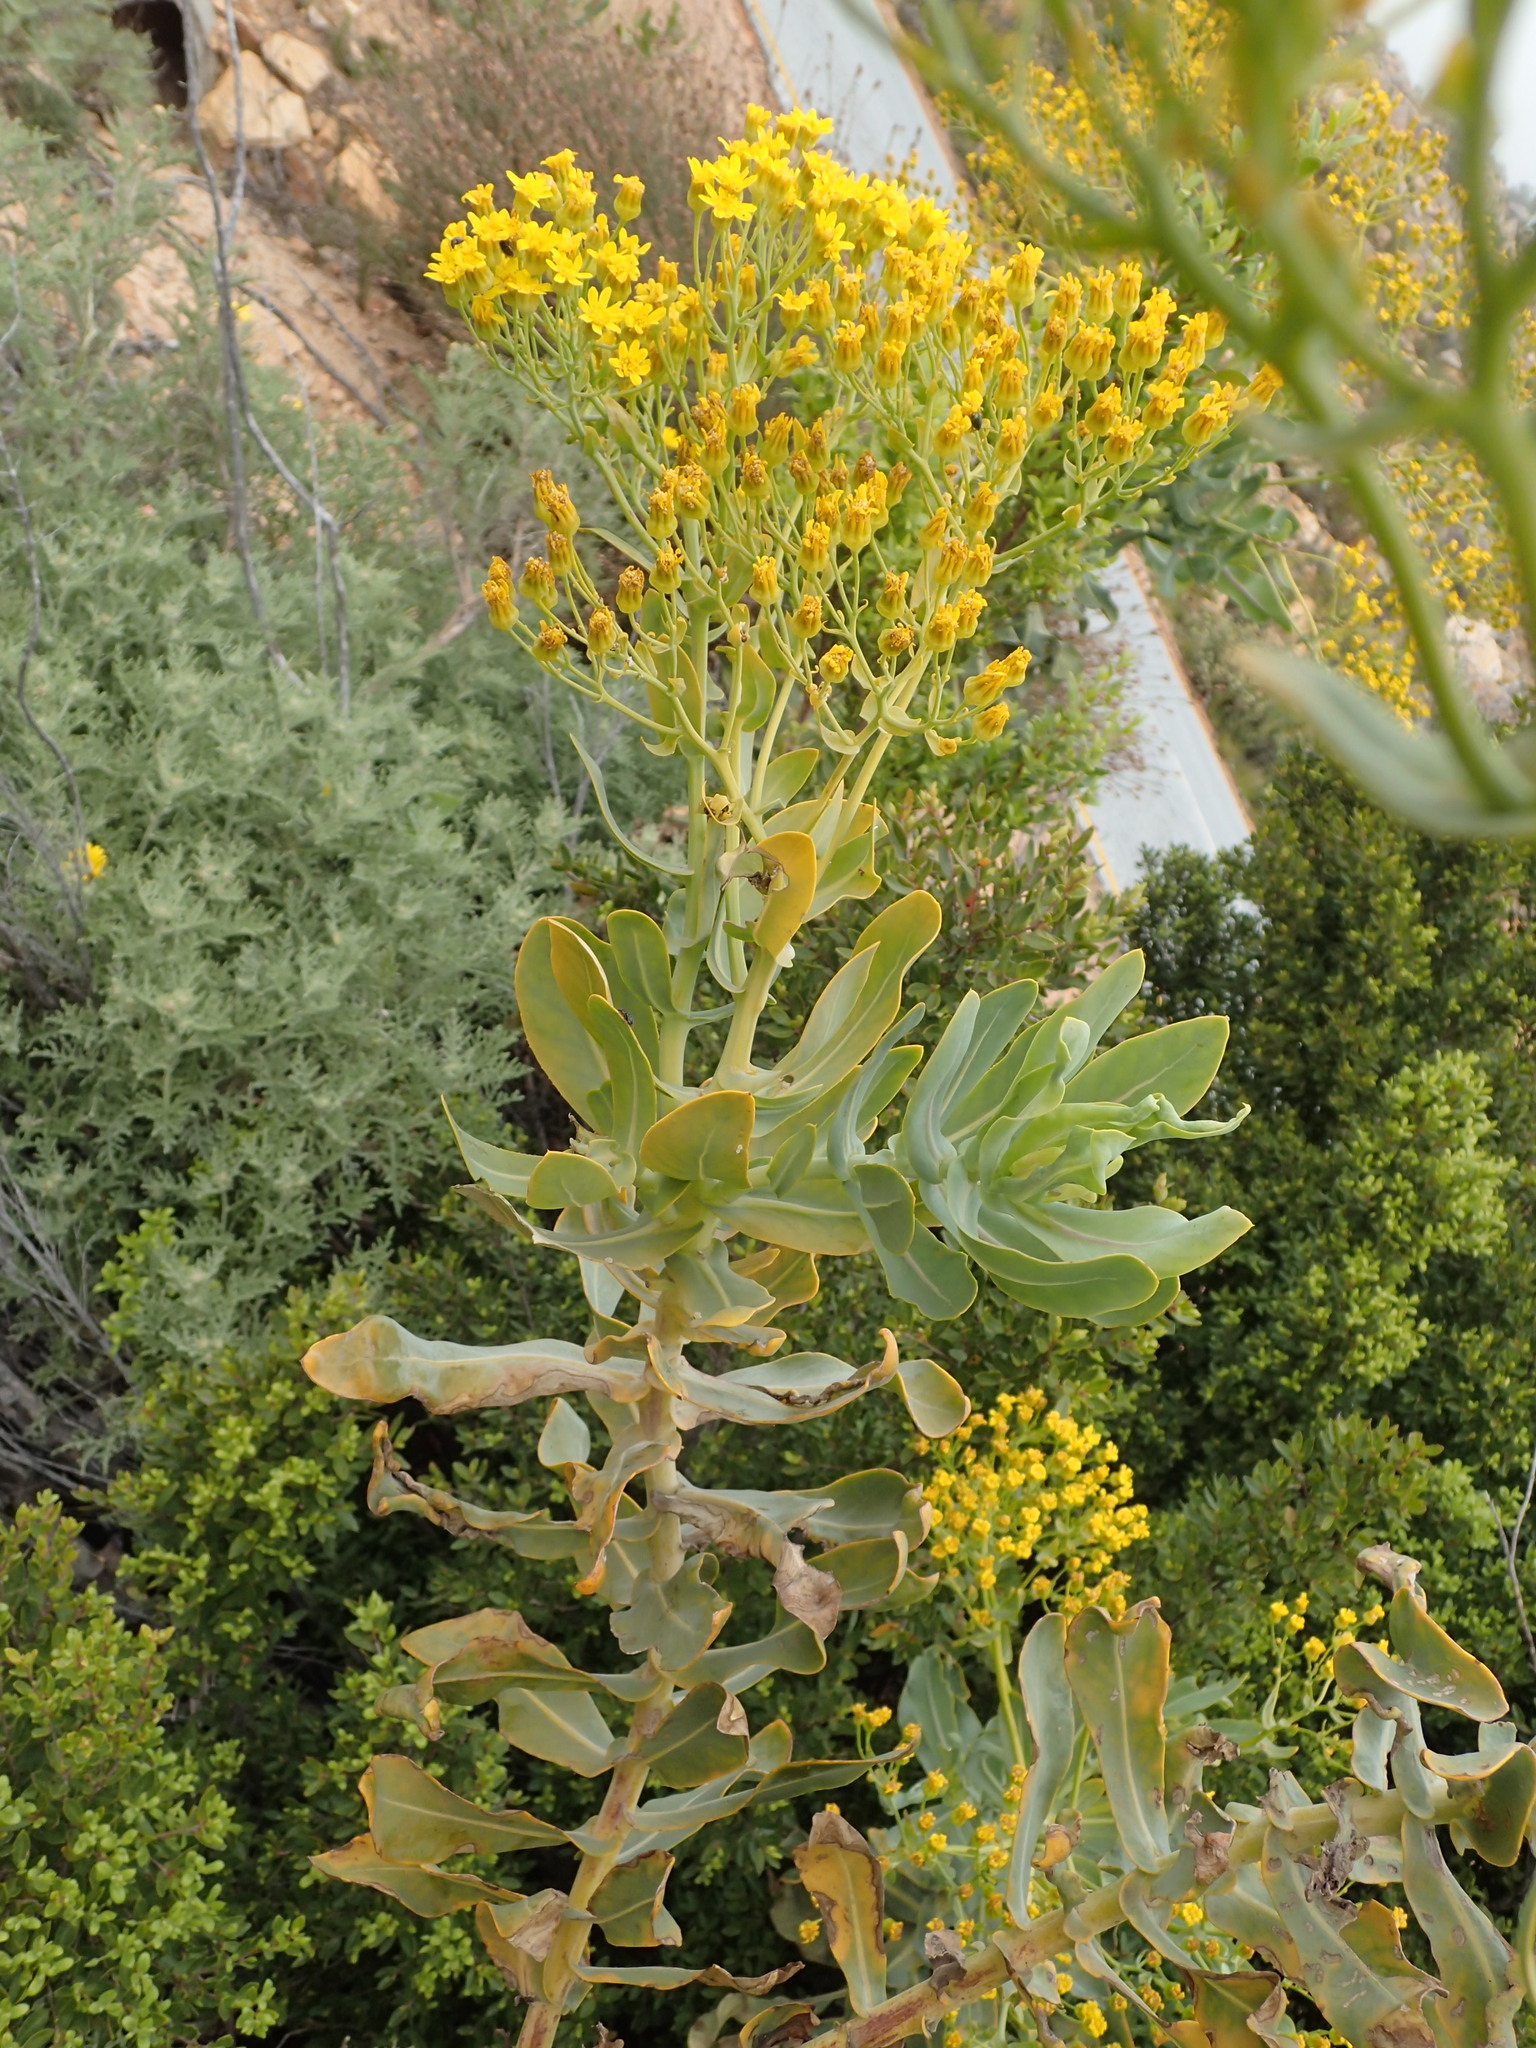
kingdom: Plantae
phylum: Tracheophyta
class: Magnoliopsida
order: Asterales
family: Asteraceae
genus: Othonna
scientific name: Othonna parviflora
